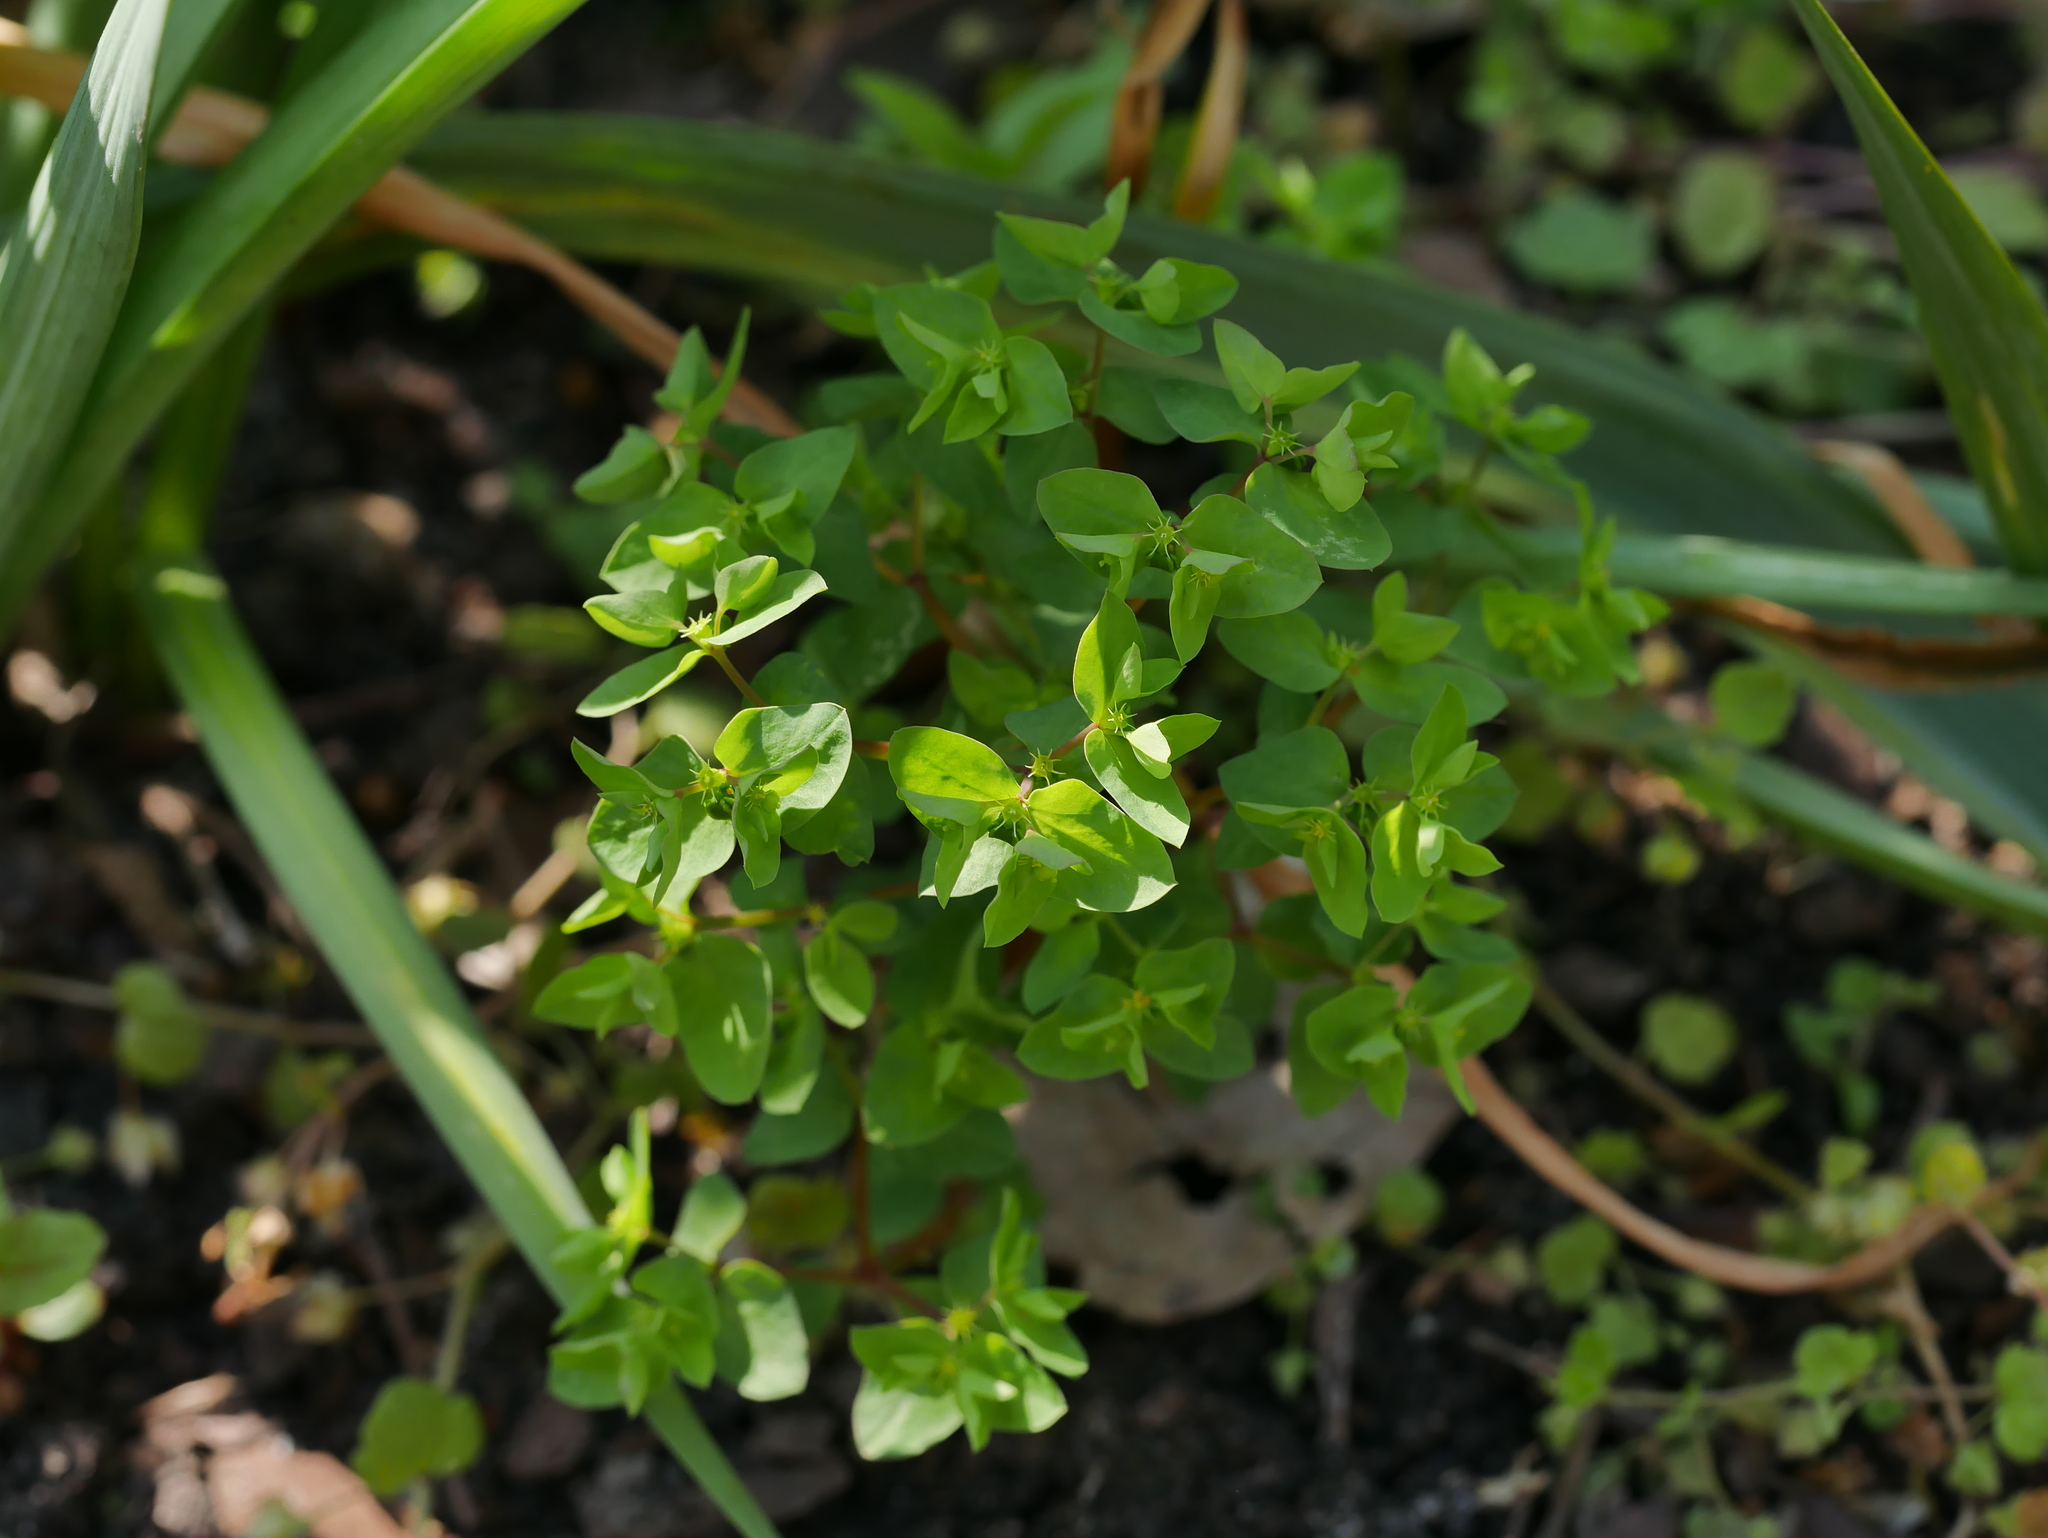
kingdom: Plantae
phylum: Tracheophyta
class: Magnoliopsida
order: Malpighiales
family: Euphorbiaceae
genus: Euphorbia
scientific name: Euphorbia peplus
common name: Petty spurge
